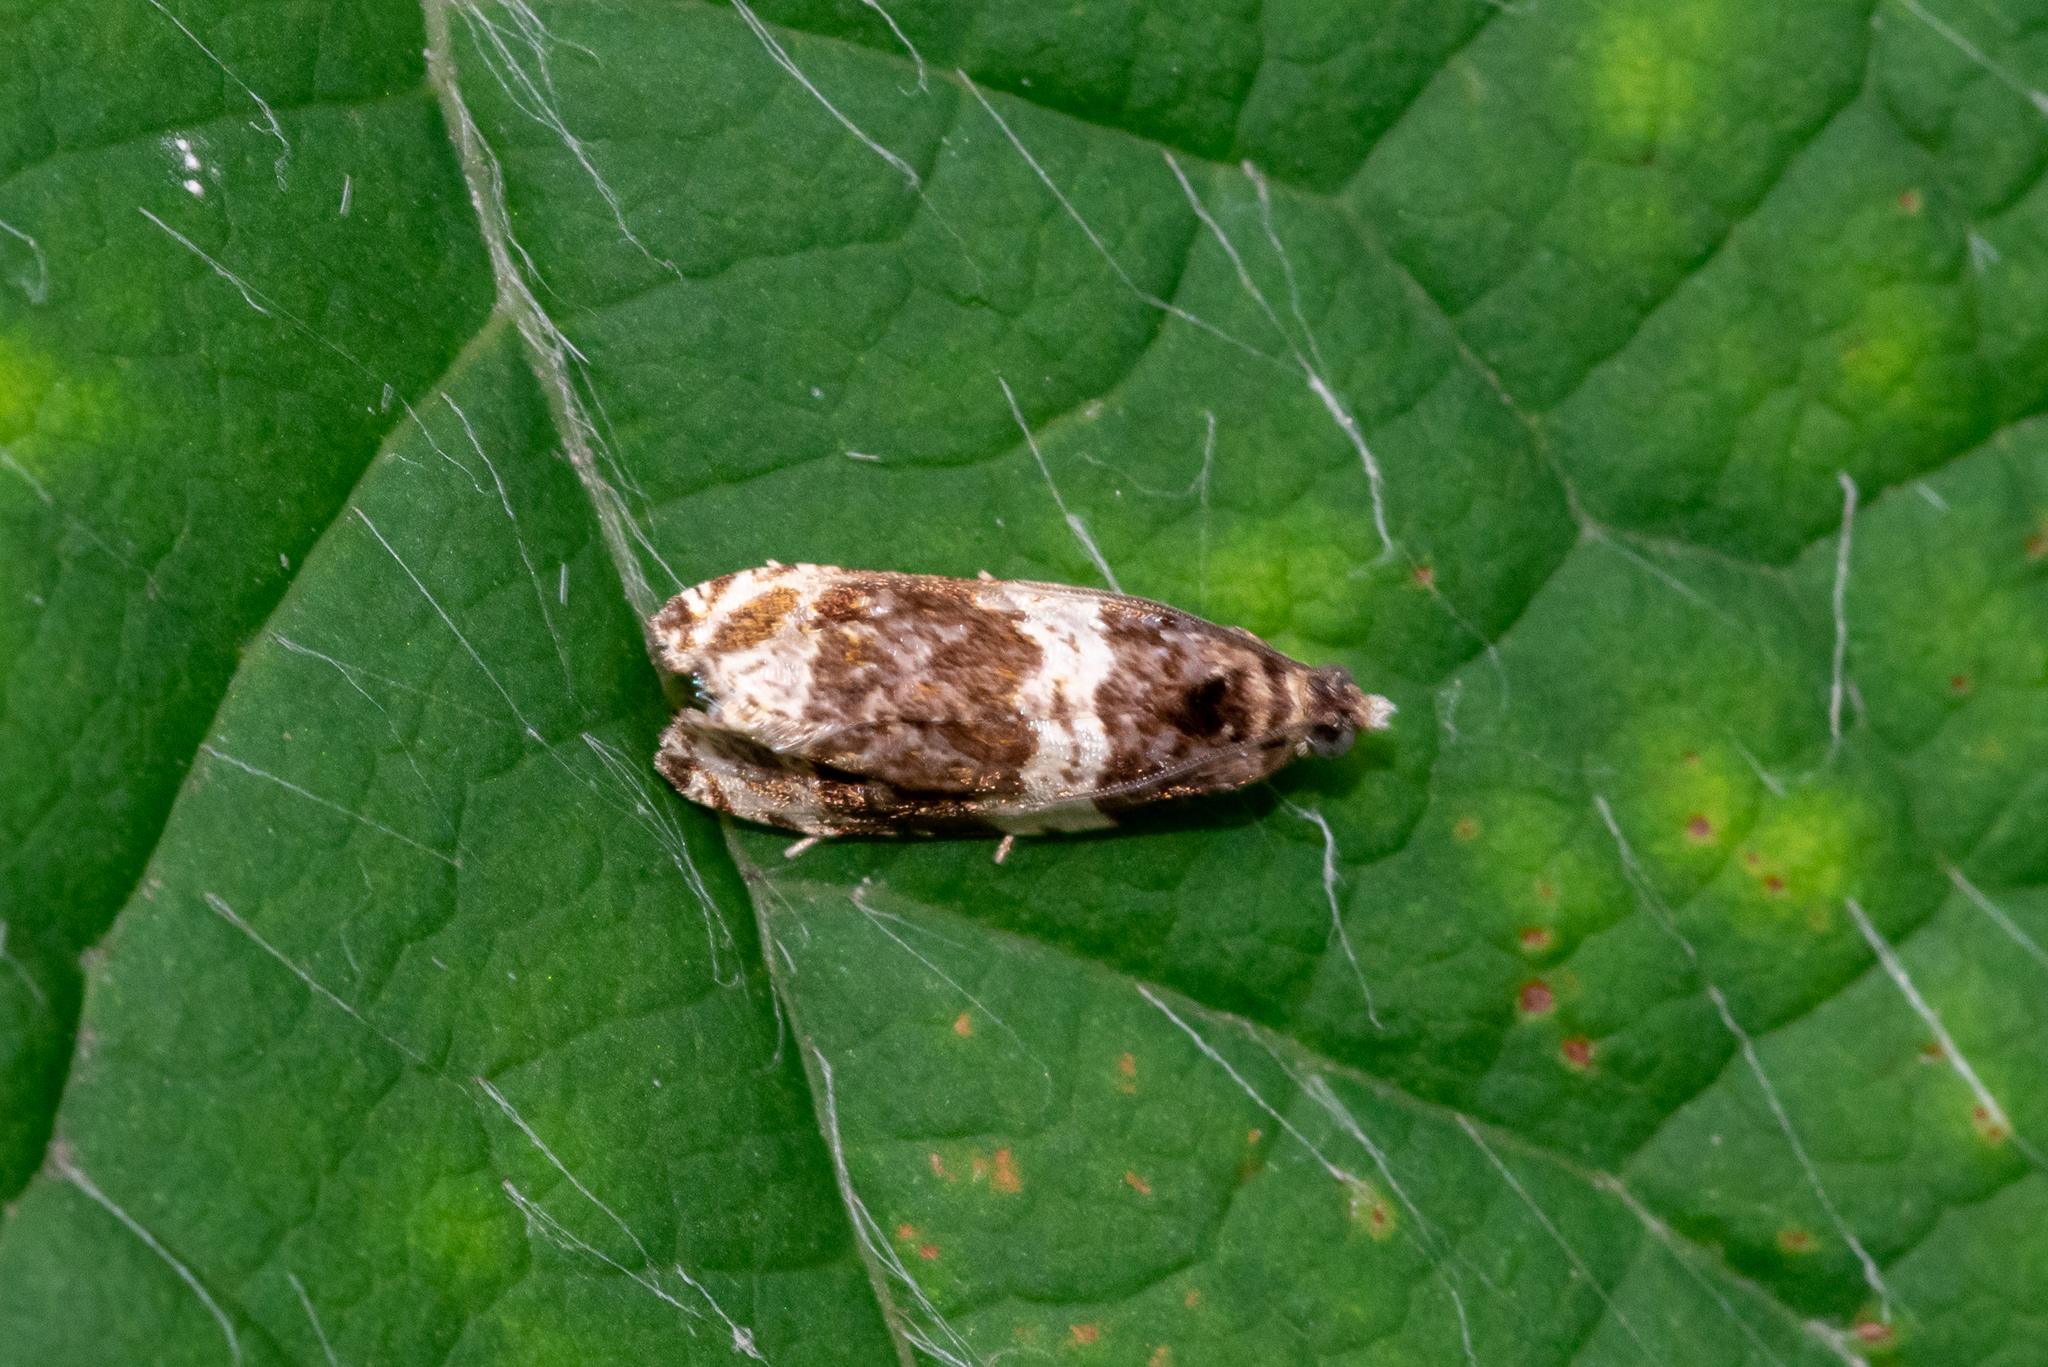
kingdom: Animalia
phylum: Arthropoda
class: Insecta
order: Lepidoptera
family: Tortricidae
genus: Olethreutes
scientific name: Olethreutes fasciatana
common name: Banded olethreutes moth
